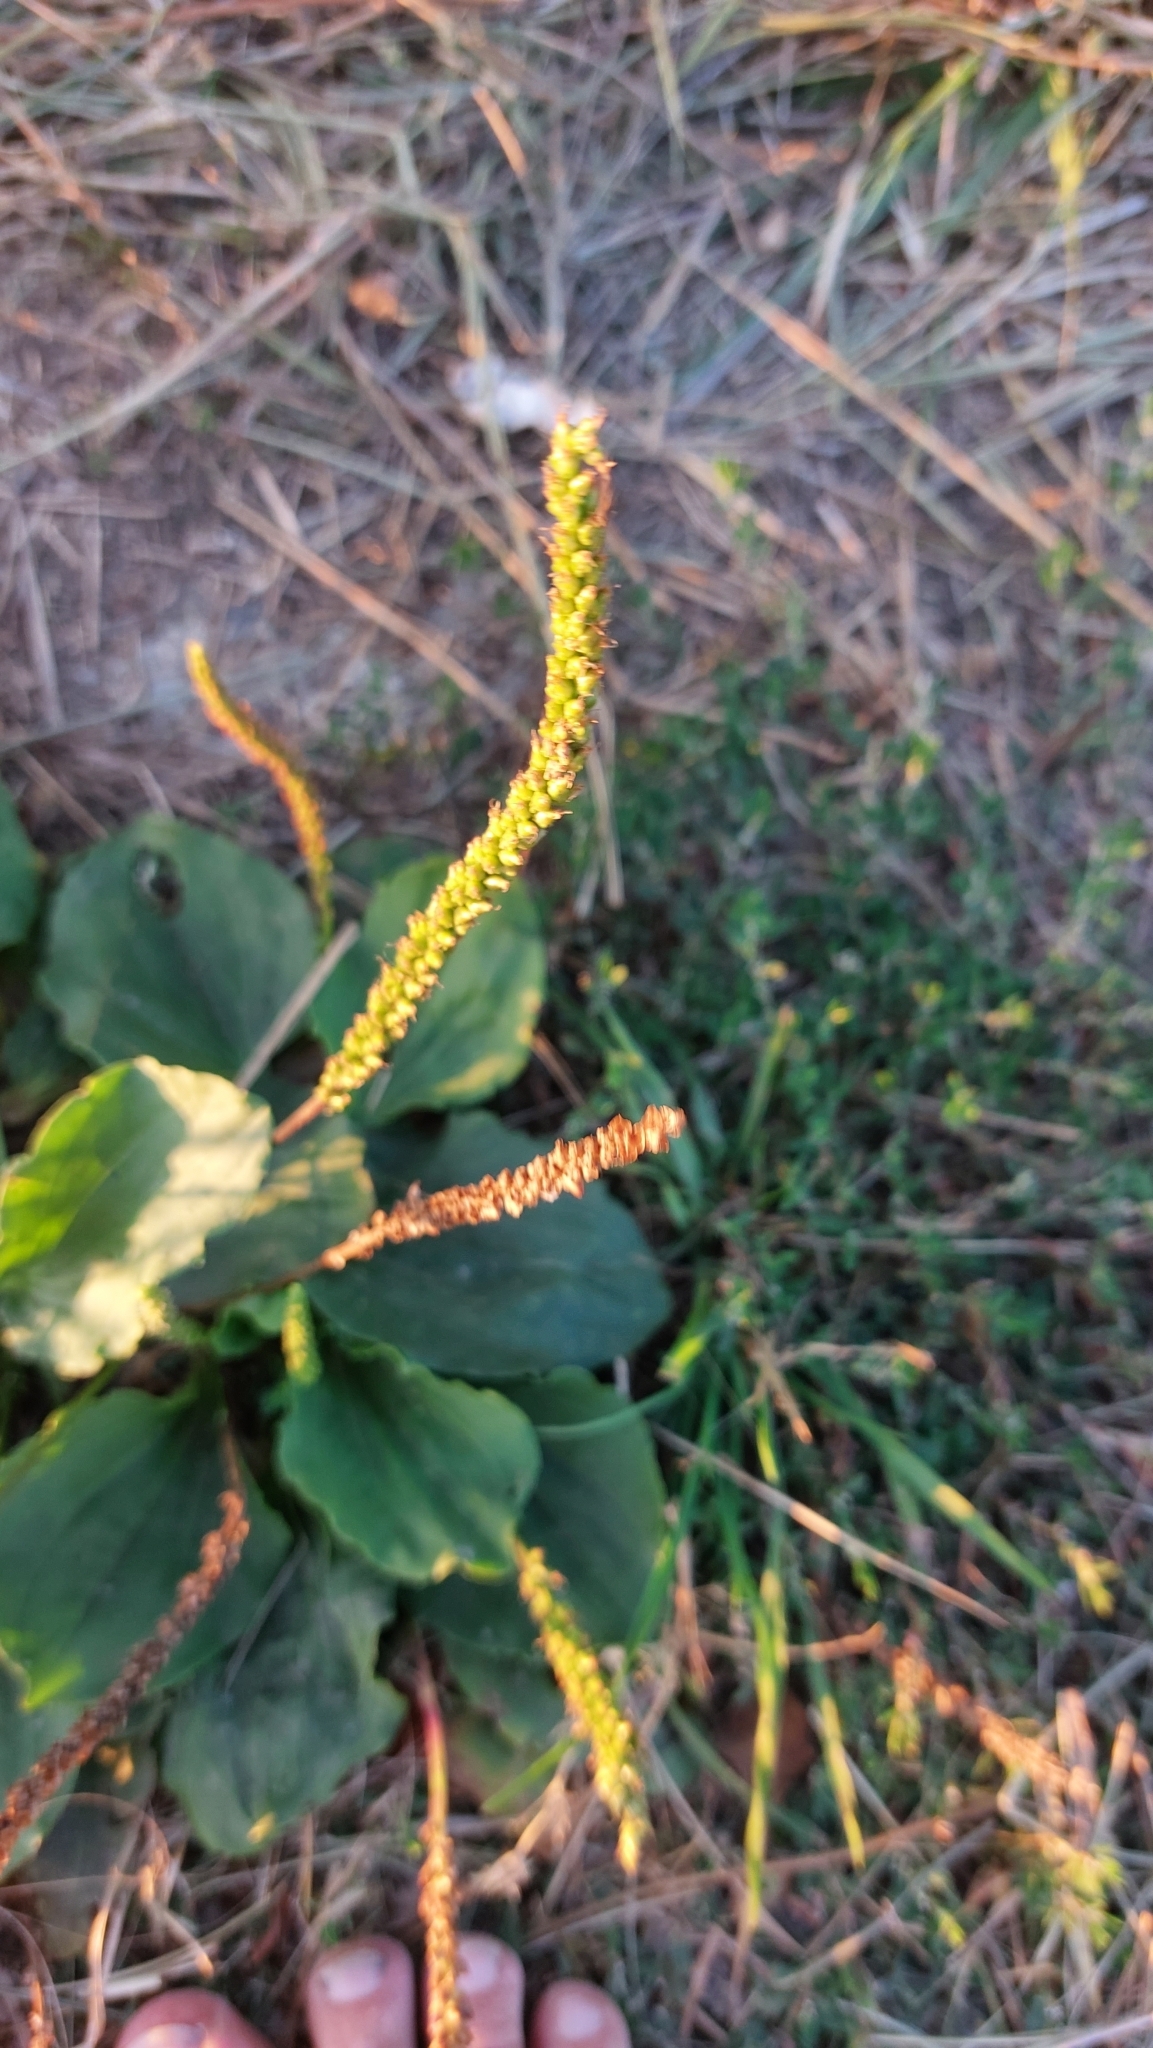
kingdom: Plantae
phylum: Tracheophyta
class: Magnoliopsida
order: Lamiales
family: Plantaginaceae
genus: Plantago
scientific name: Plantago major
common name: Common plantain
